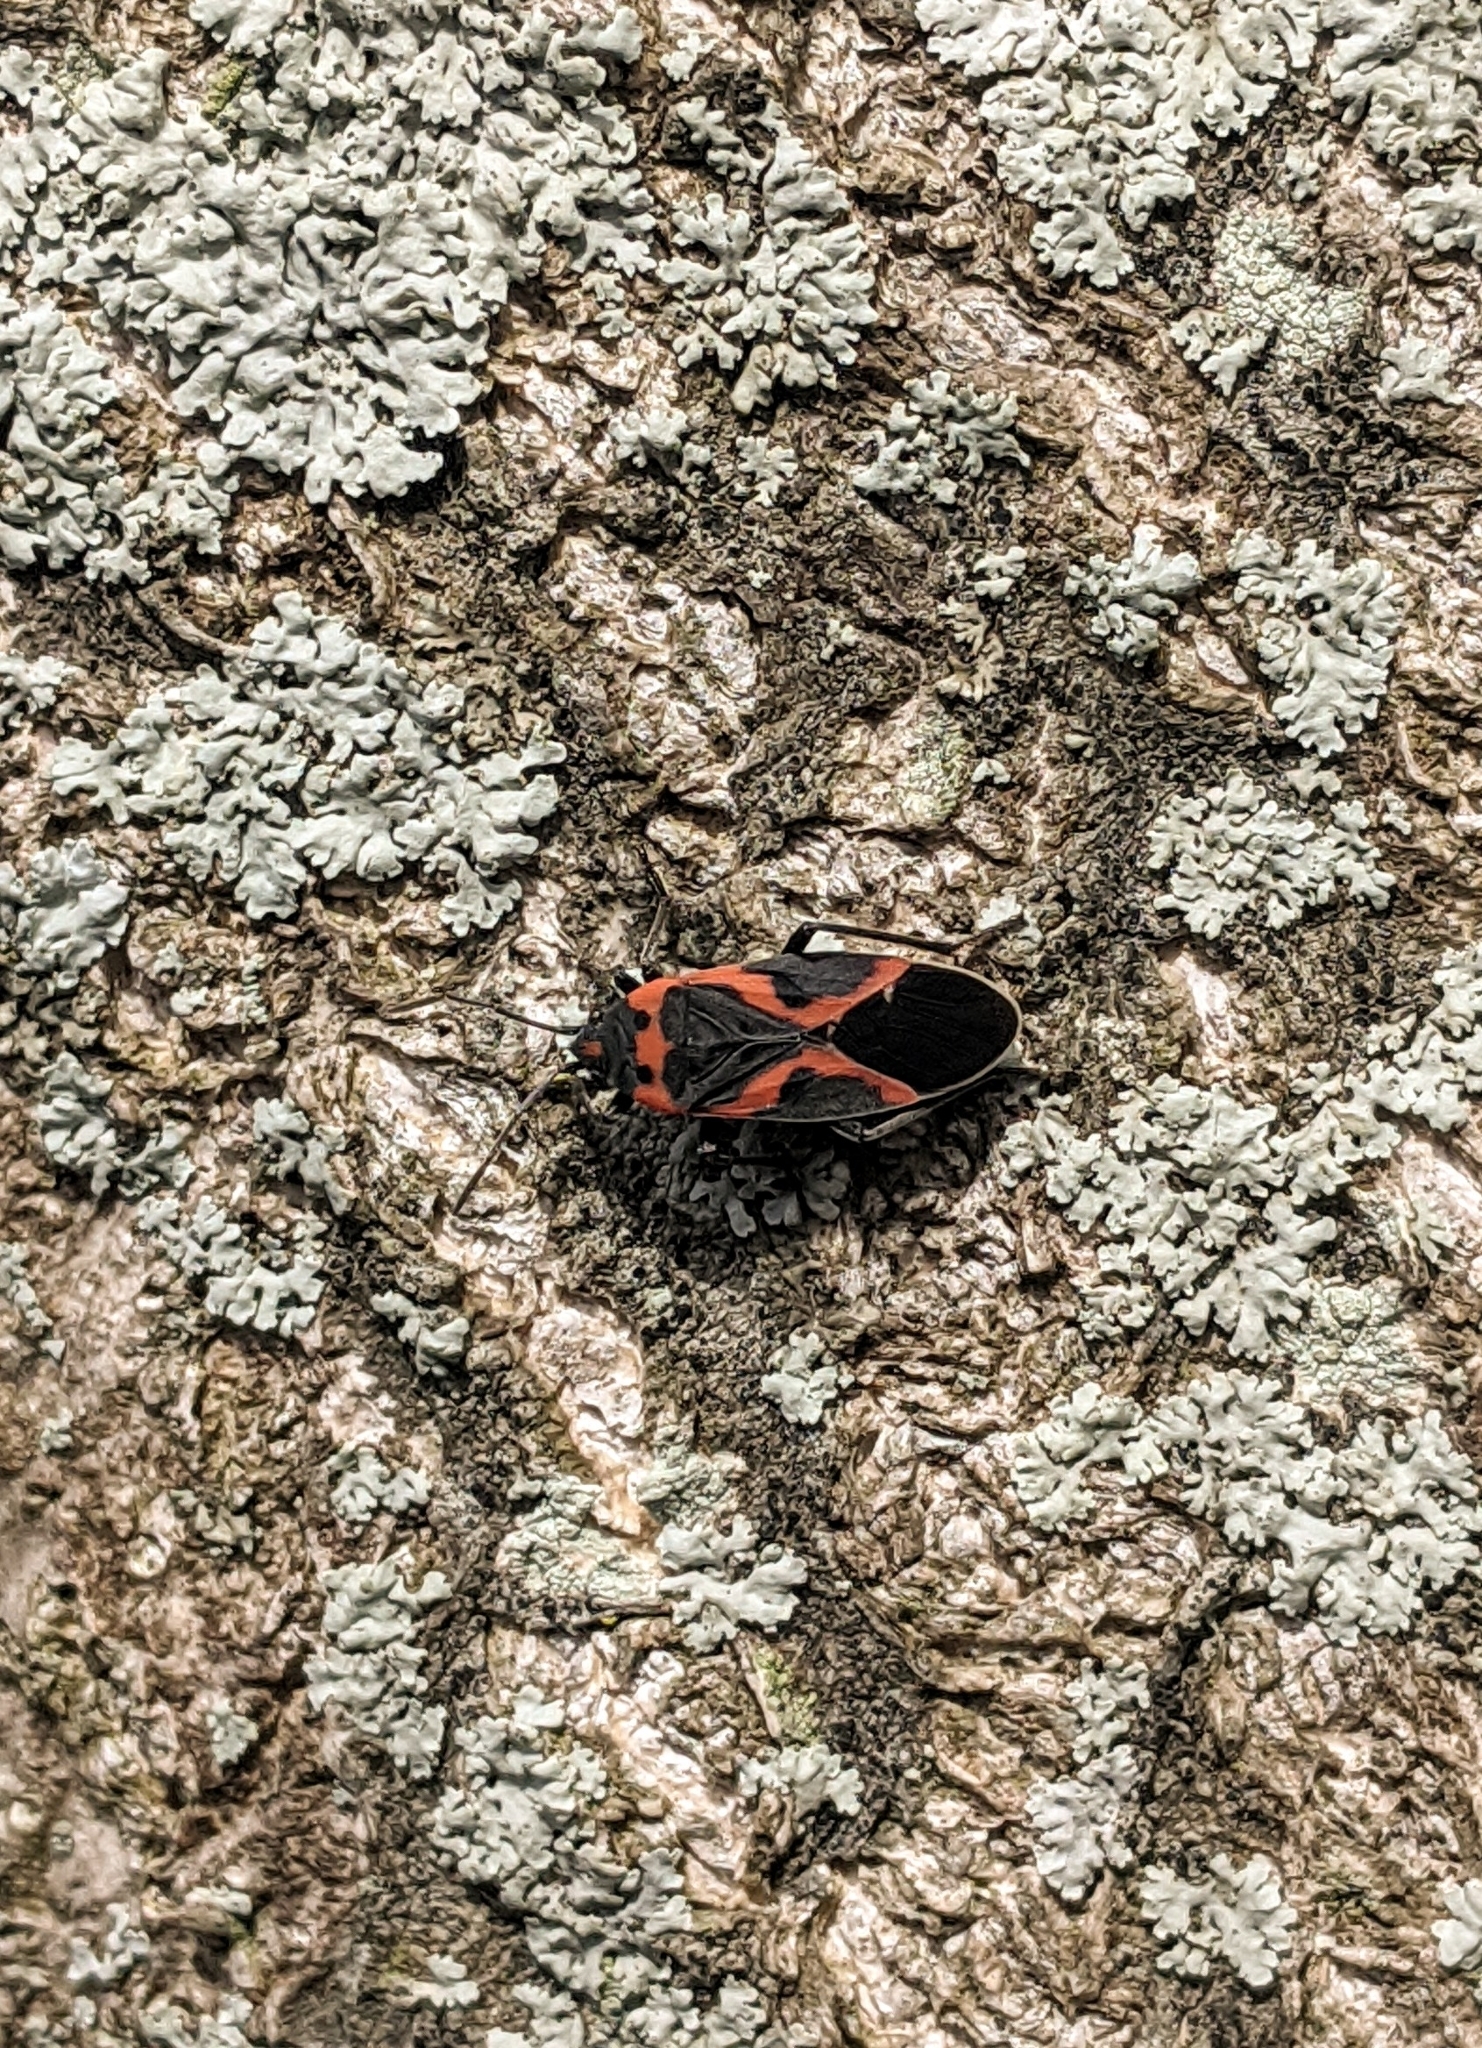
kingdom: Animalia
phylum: Arthropoda
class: Insecta
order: Hemiptera
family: Lygaeidae
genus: Lygaeus
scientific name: Lygaeus kalmii
